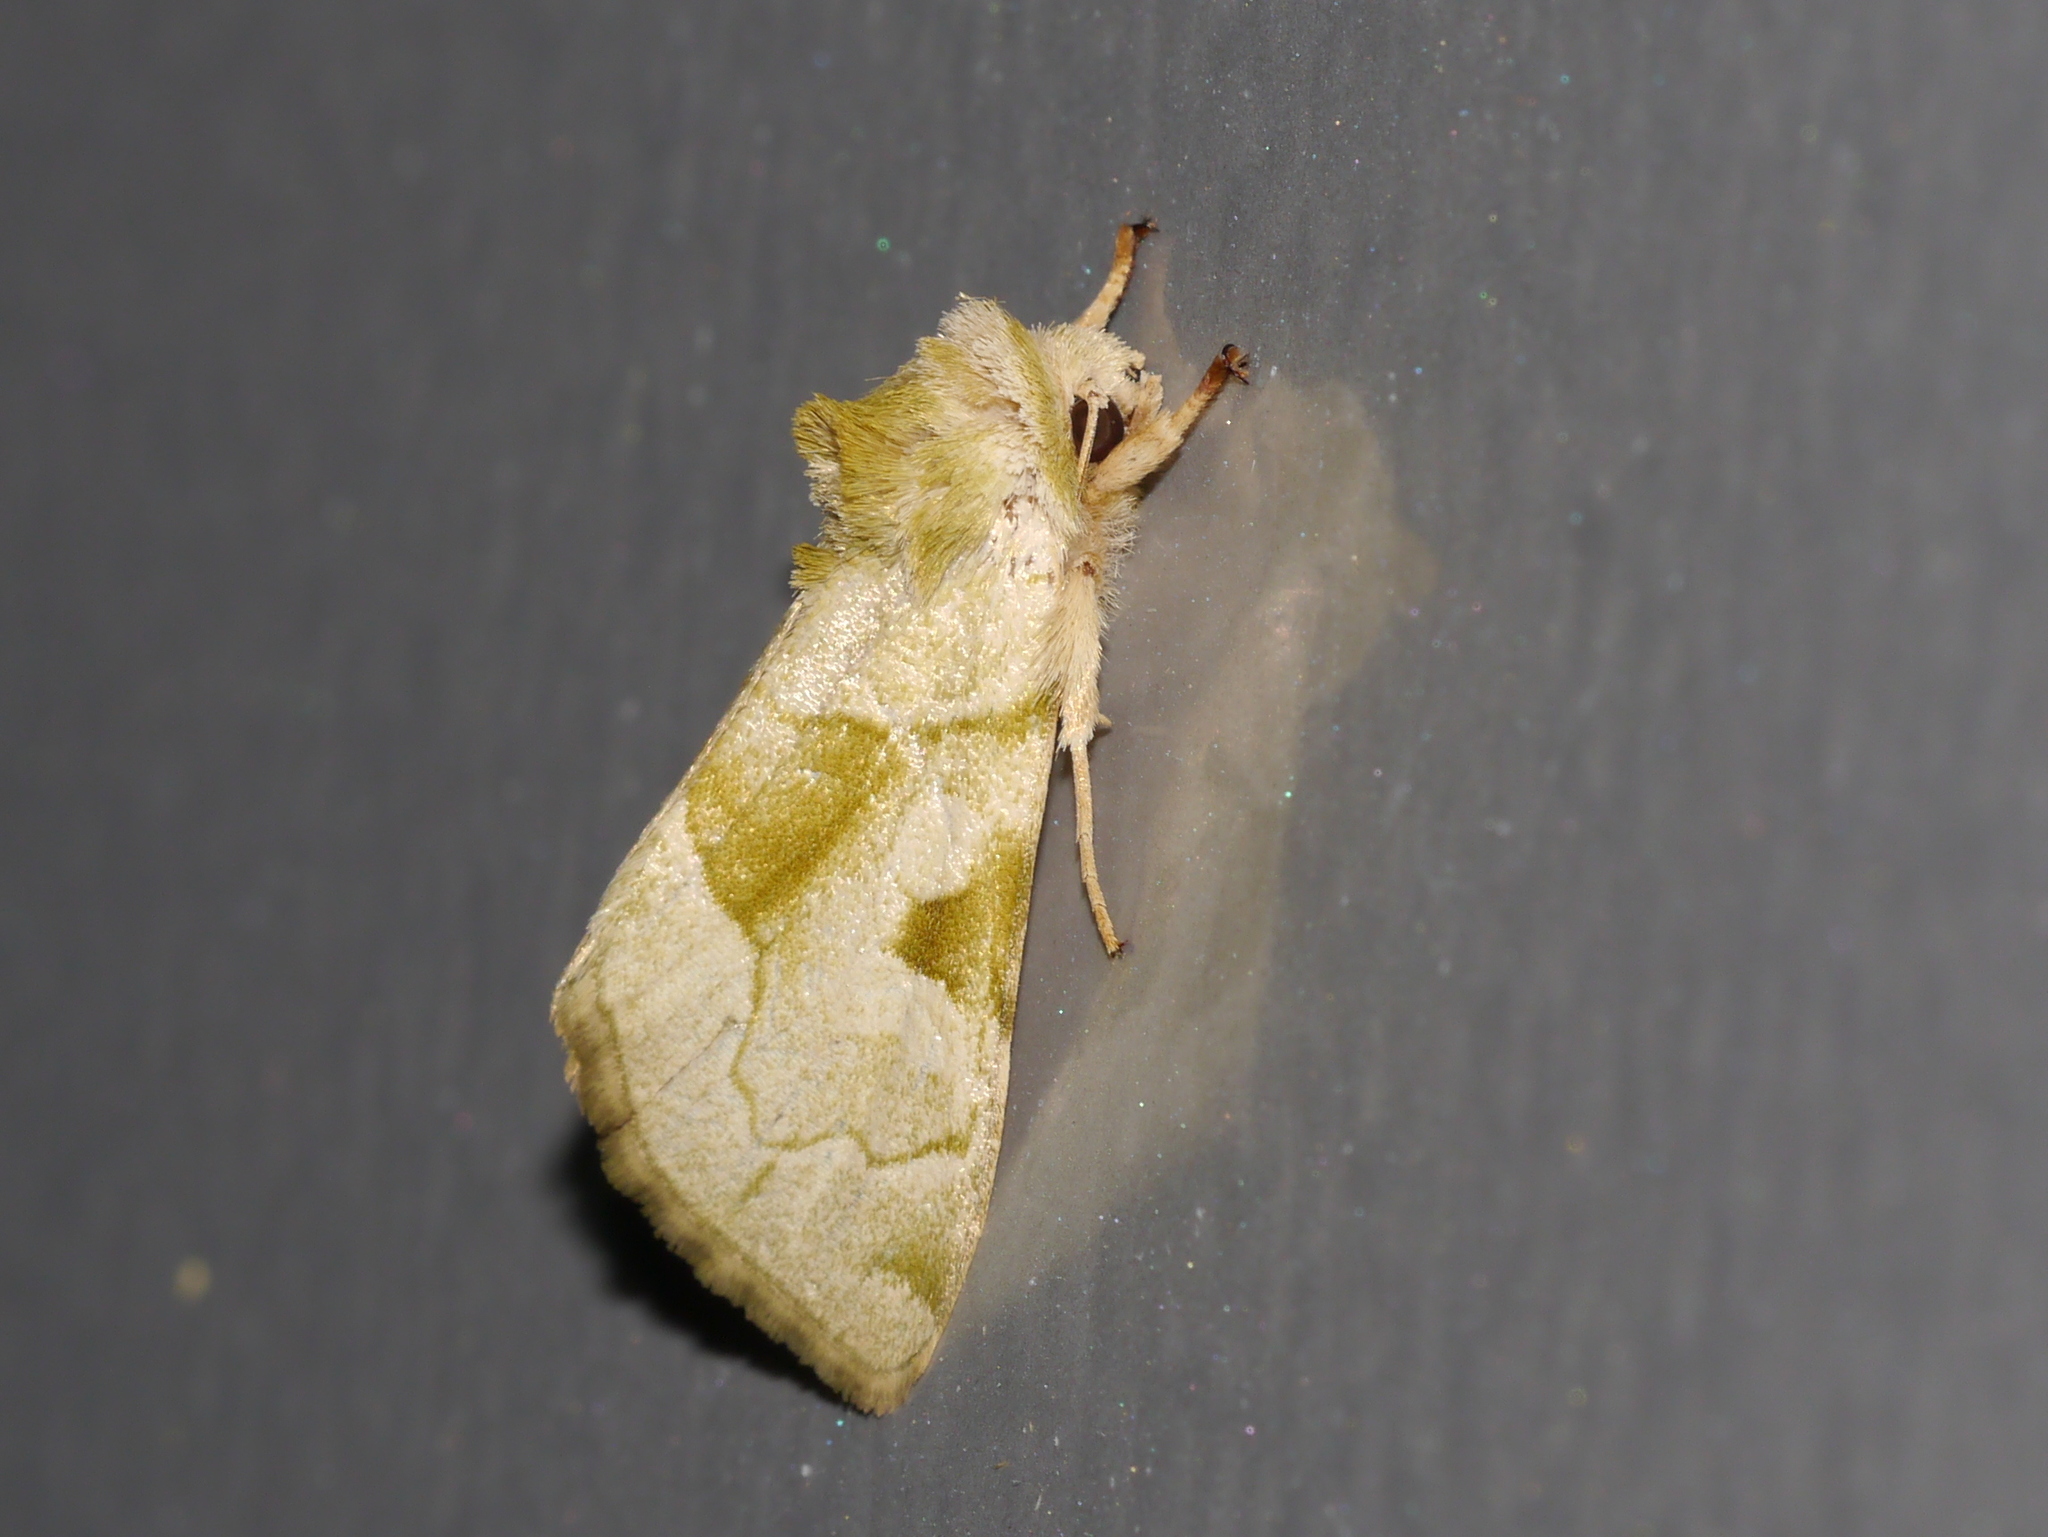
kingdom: Animalia
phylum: Arthropoda
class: Insecta
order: Lepidoptera
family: Noctuidae
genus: Oslaria
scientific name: Oslaria viridifera
